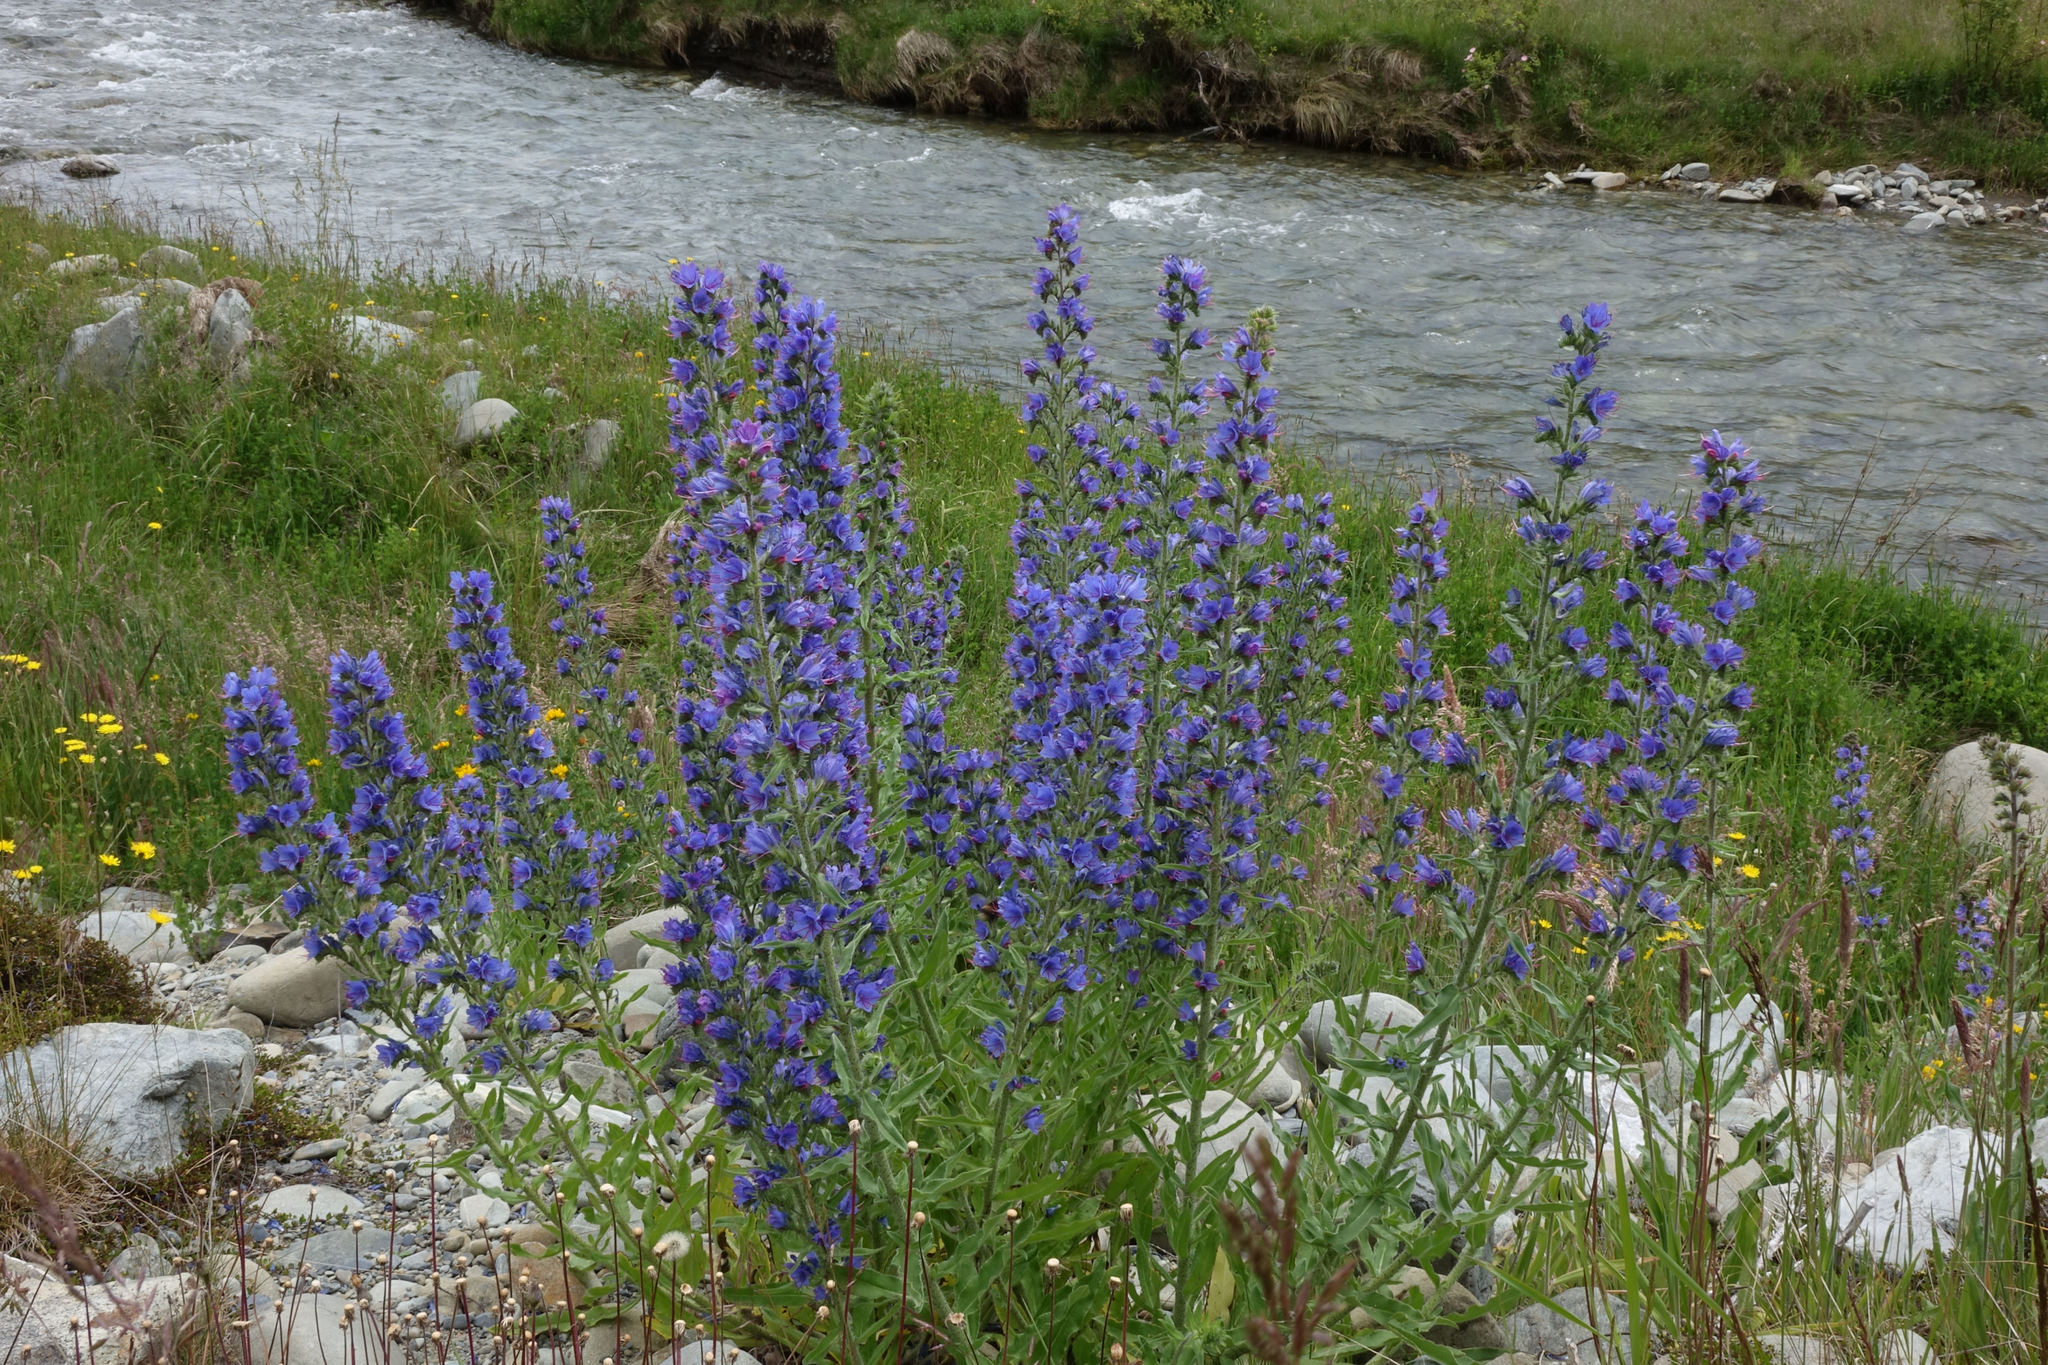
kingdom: Plantae
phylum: Tracheophyta
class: Magnoliopsida
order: Boraginales
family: Boraginaceae
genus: Echium
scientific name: Echium vulgare
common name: Common viper's bugloss
